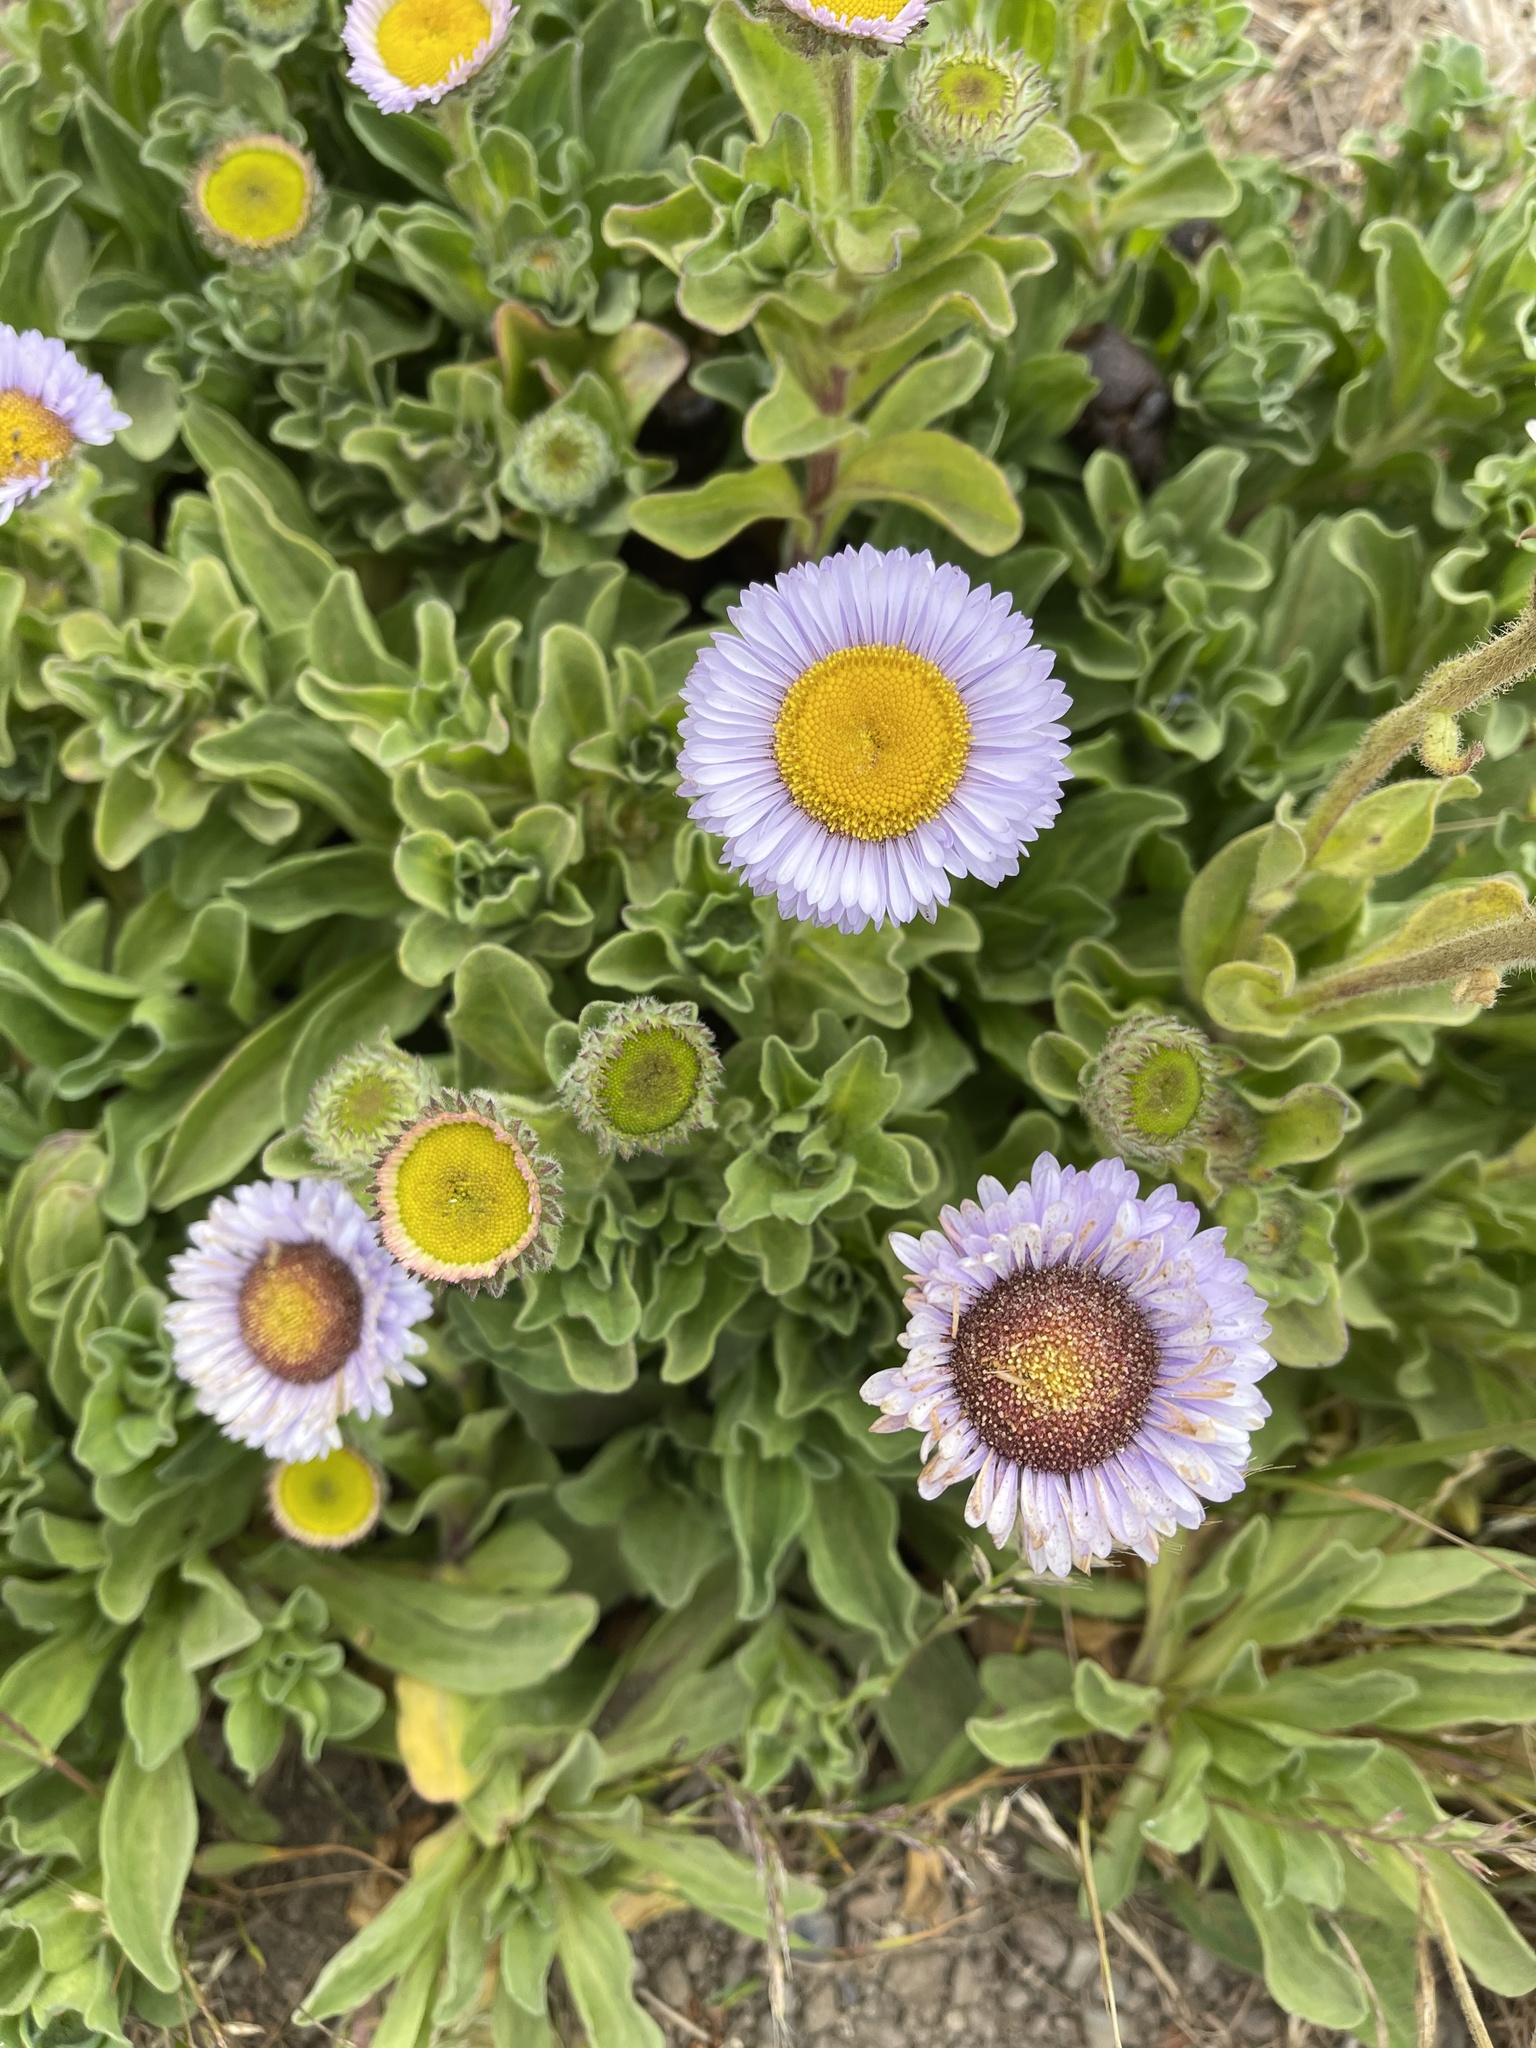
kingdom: Plantae
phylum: Tracheophyta
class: Magnoliopsida
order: Asterales
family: Asteraceae
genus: Erigeron
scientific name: Erigeron glaucus
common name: Seaside daisy
